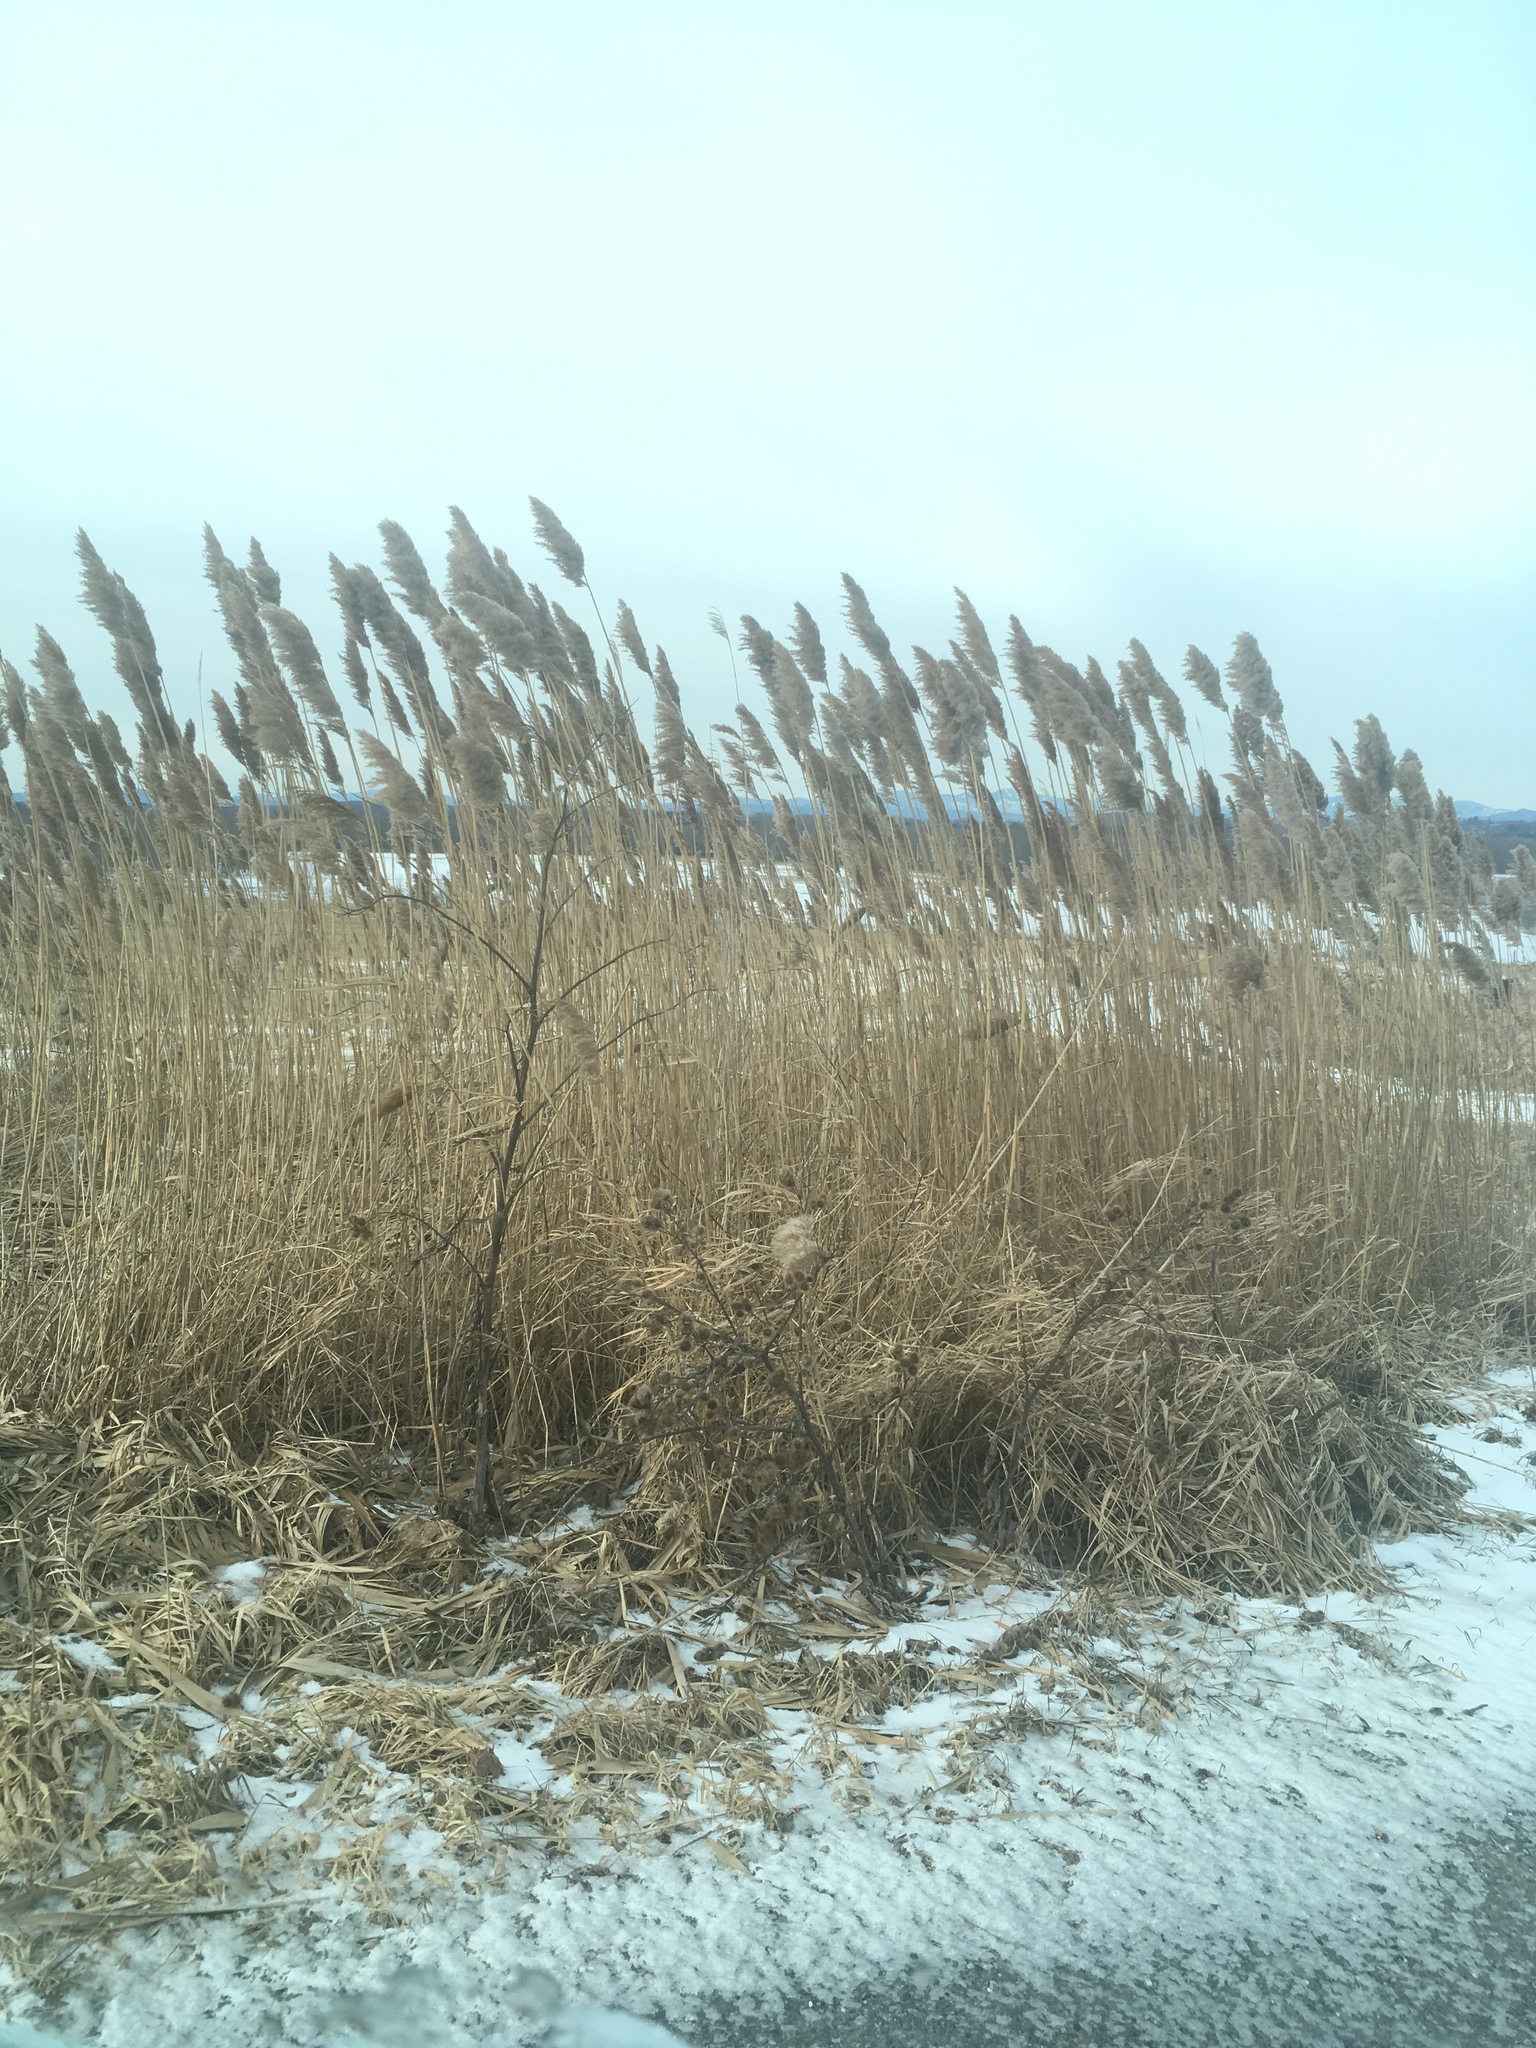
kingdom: Plantae
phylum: Tracheophyta
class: Liliopsida
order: Poales
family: Poaceae
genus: Phragmites
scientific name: Phragmites australis
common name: Common reed
